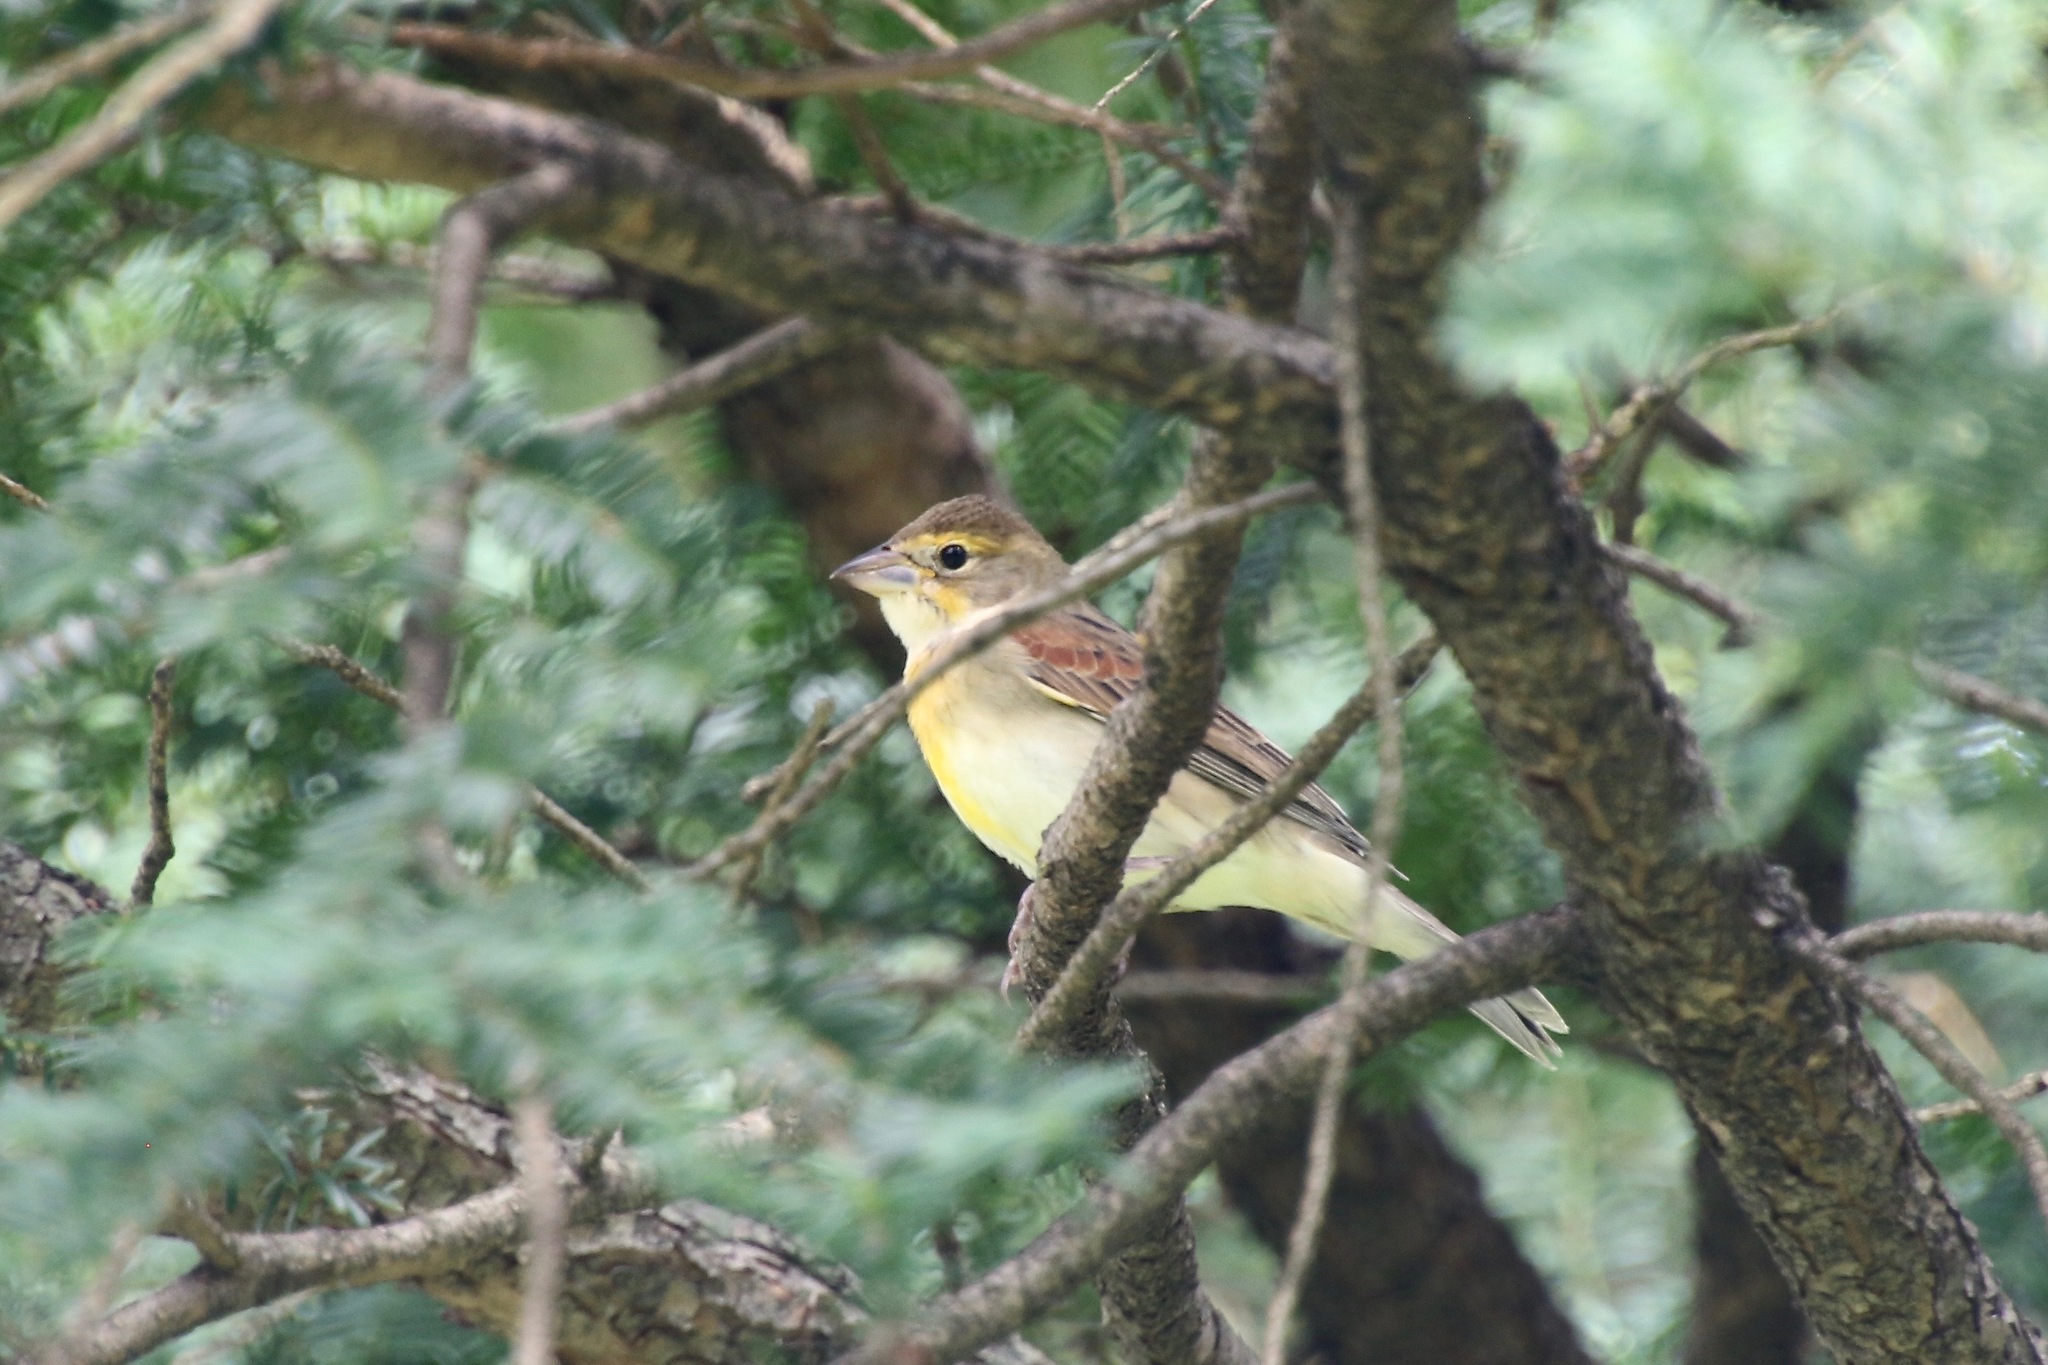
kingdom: Animalia
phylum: Chordata
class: Aves
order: Passeriformes
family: Cardinalidae
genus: Spiza
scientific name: Spiza americana
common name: Dickcissel
